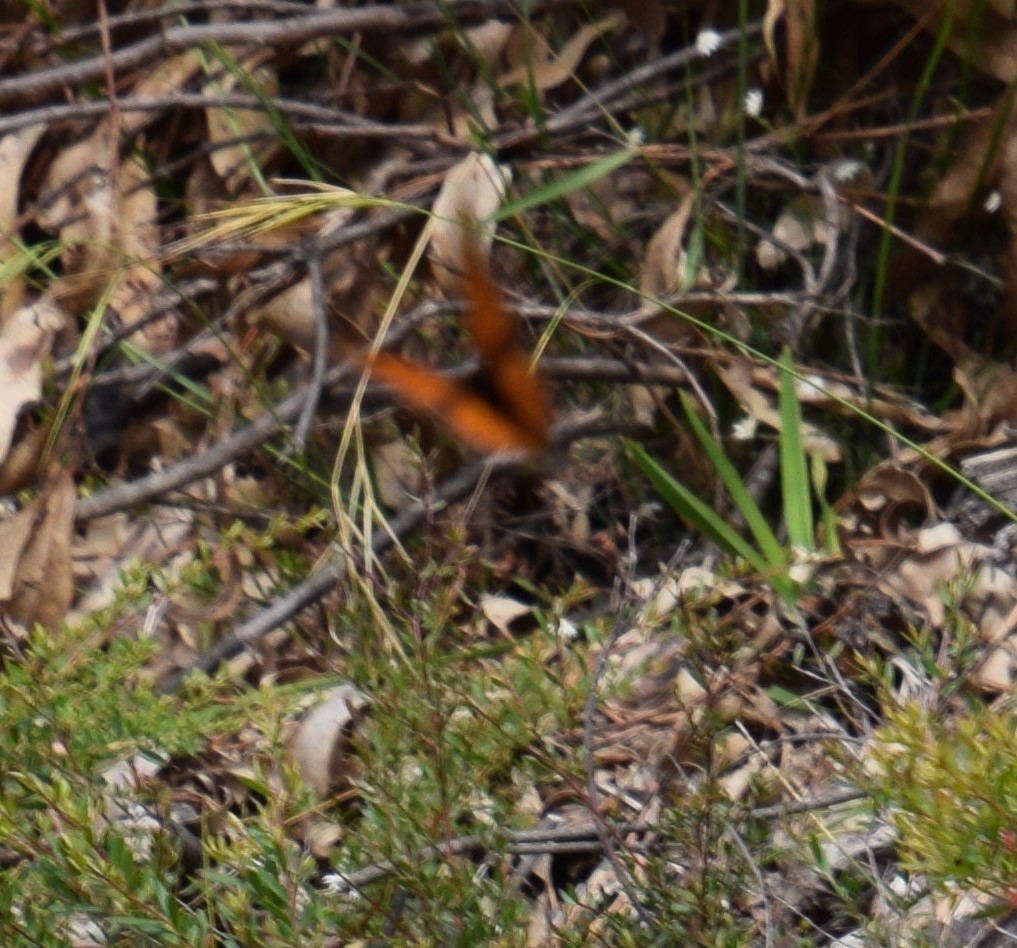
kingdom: Animalia
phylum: Arthropoda
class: Insecta
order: Lepidoptera
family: Nymphalidae
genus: Danaus
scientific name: Danaus plexippus
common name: Monarch
